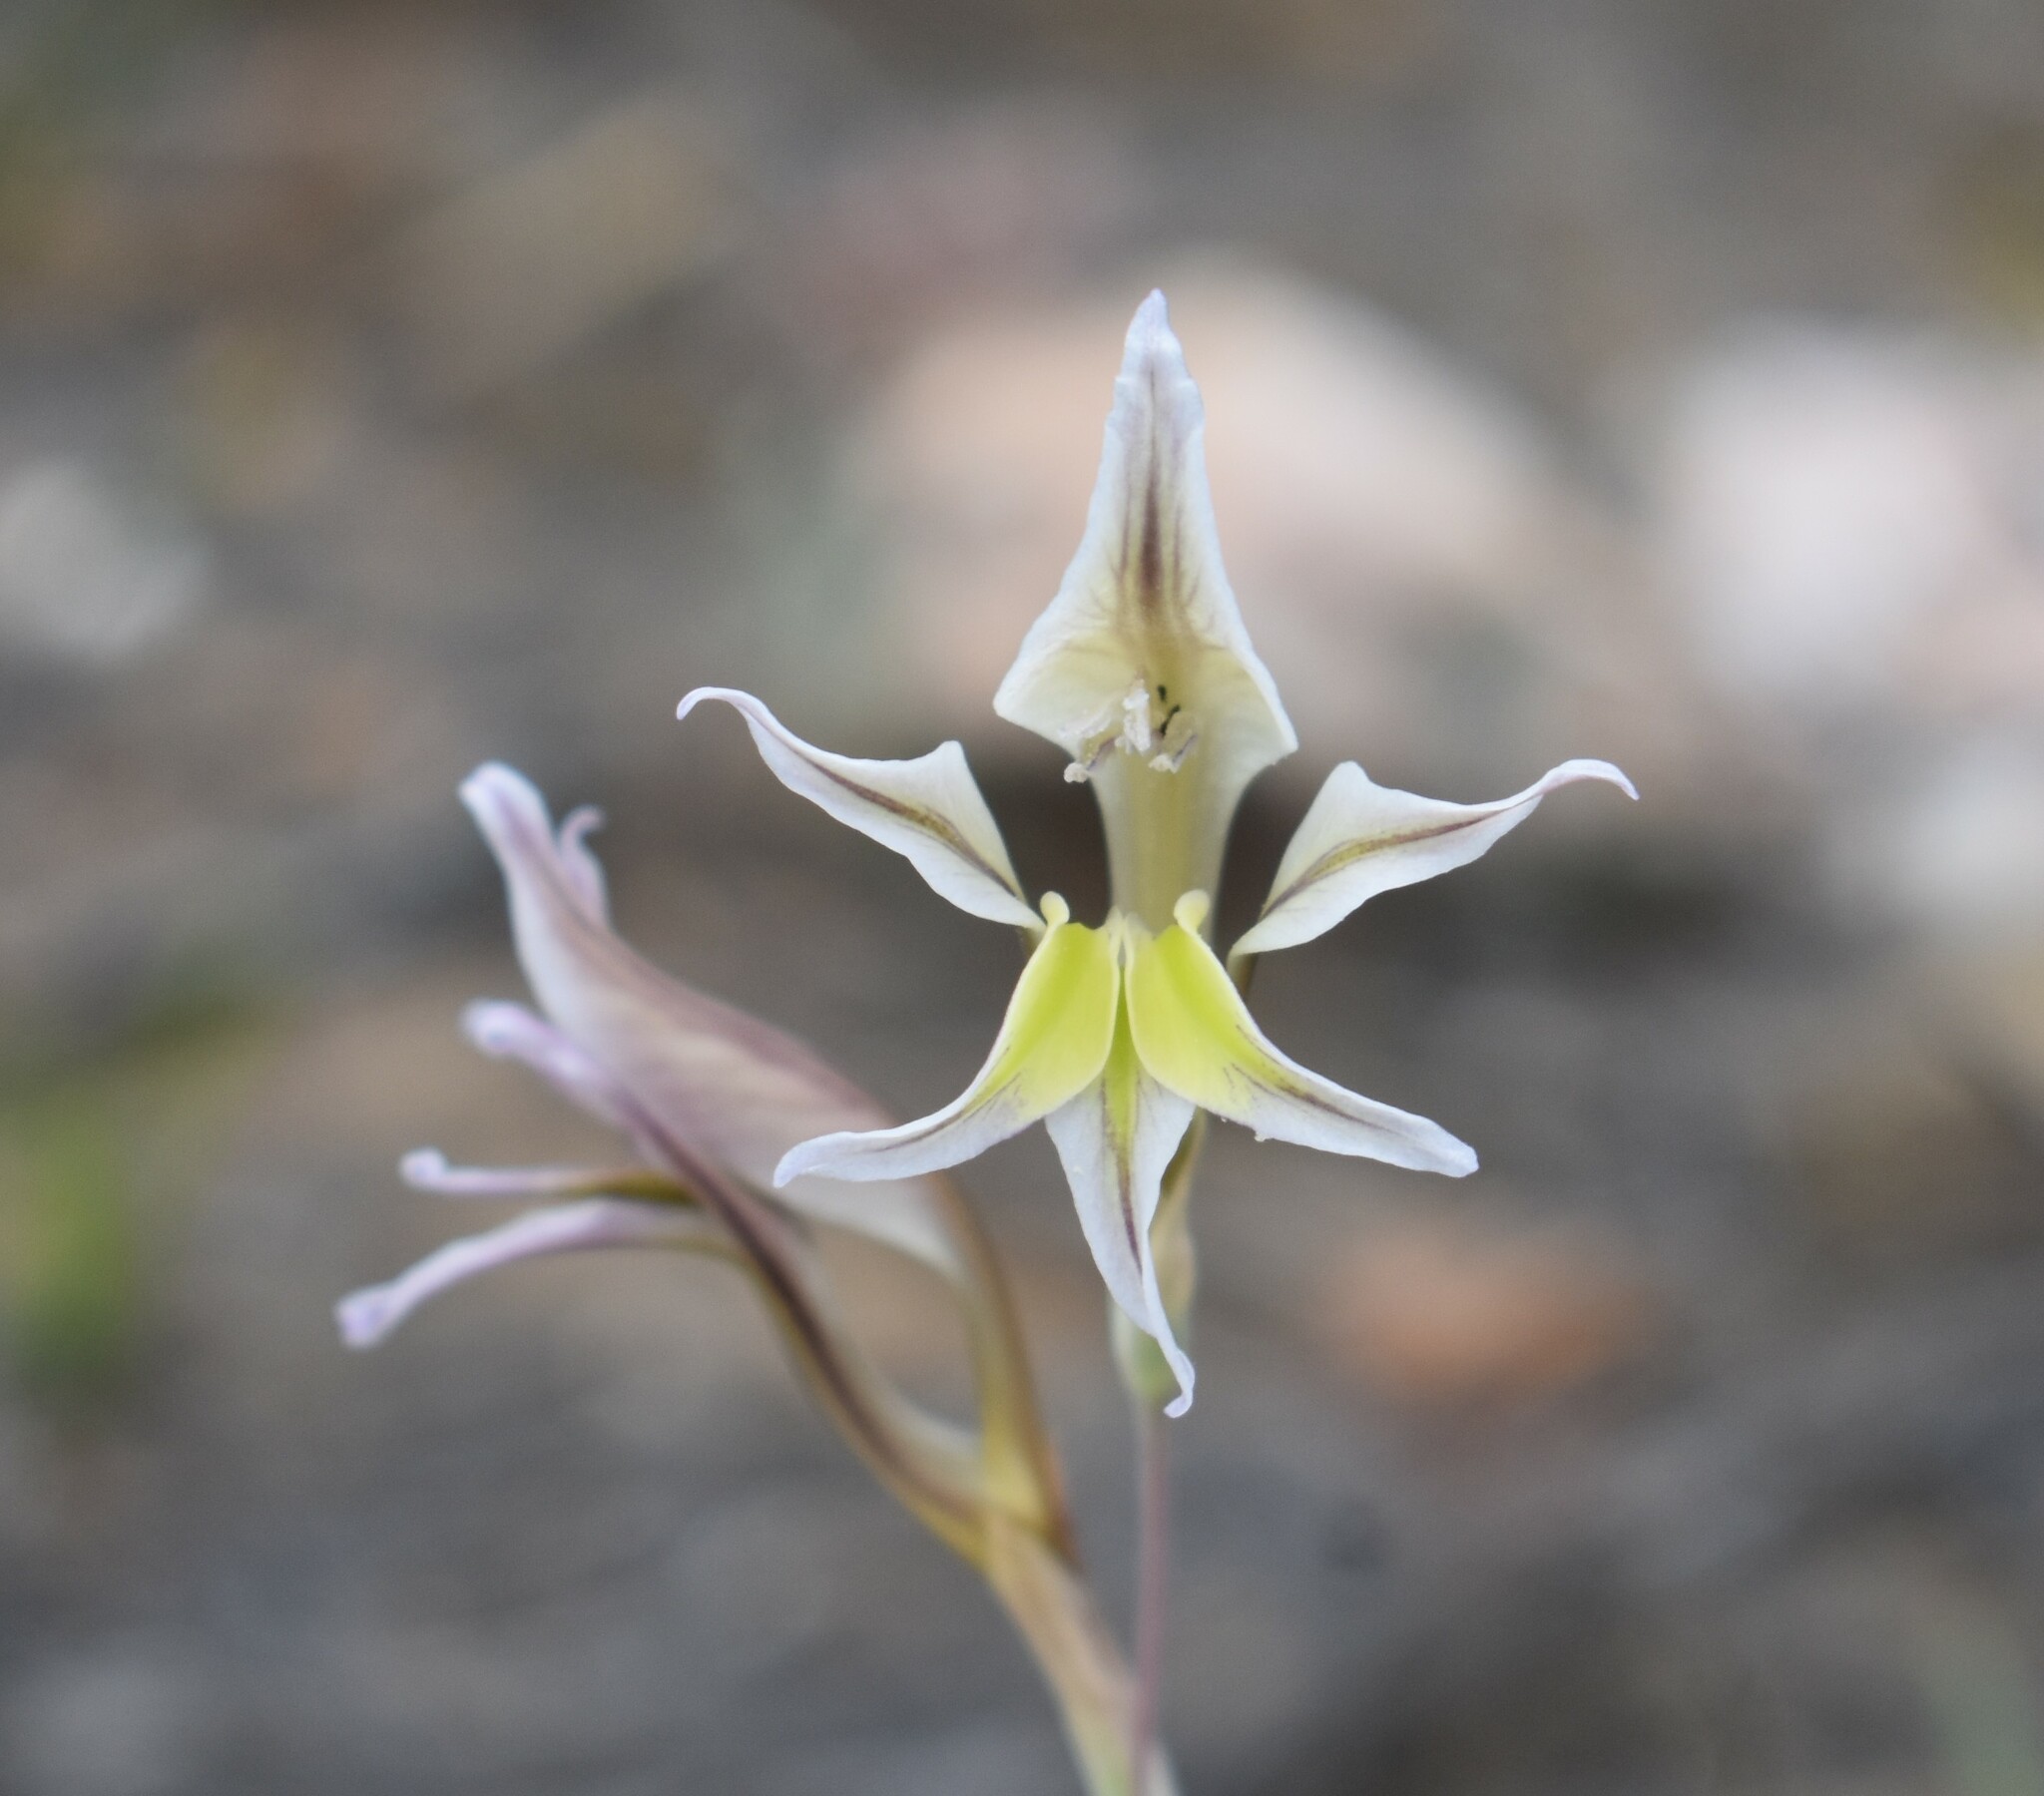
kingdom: Plantae
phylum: Tracheophyta
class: Liliopsida
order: Asparagales
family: Iridaceae
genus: Gladiolus
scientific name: Gladiolus permeabilis
